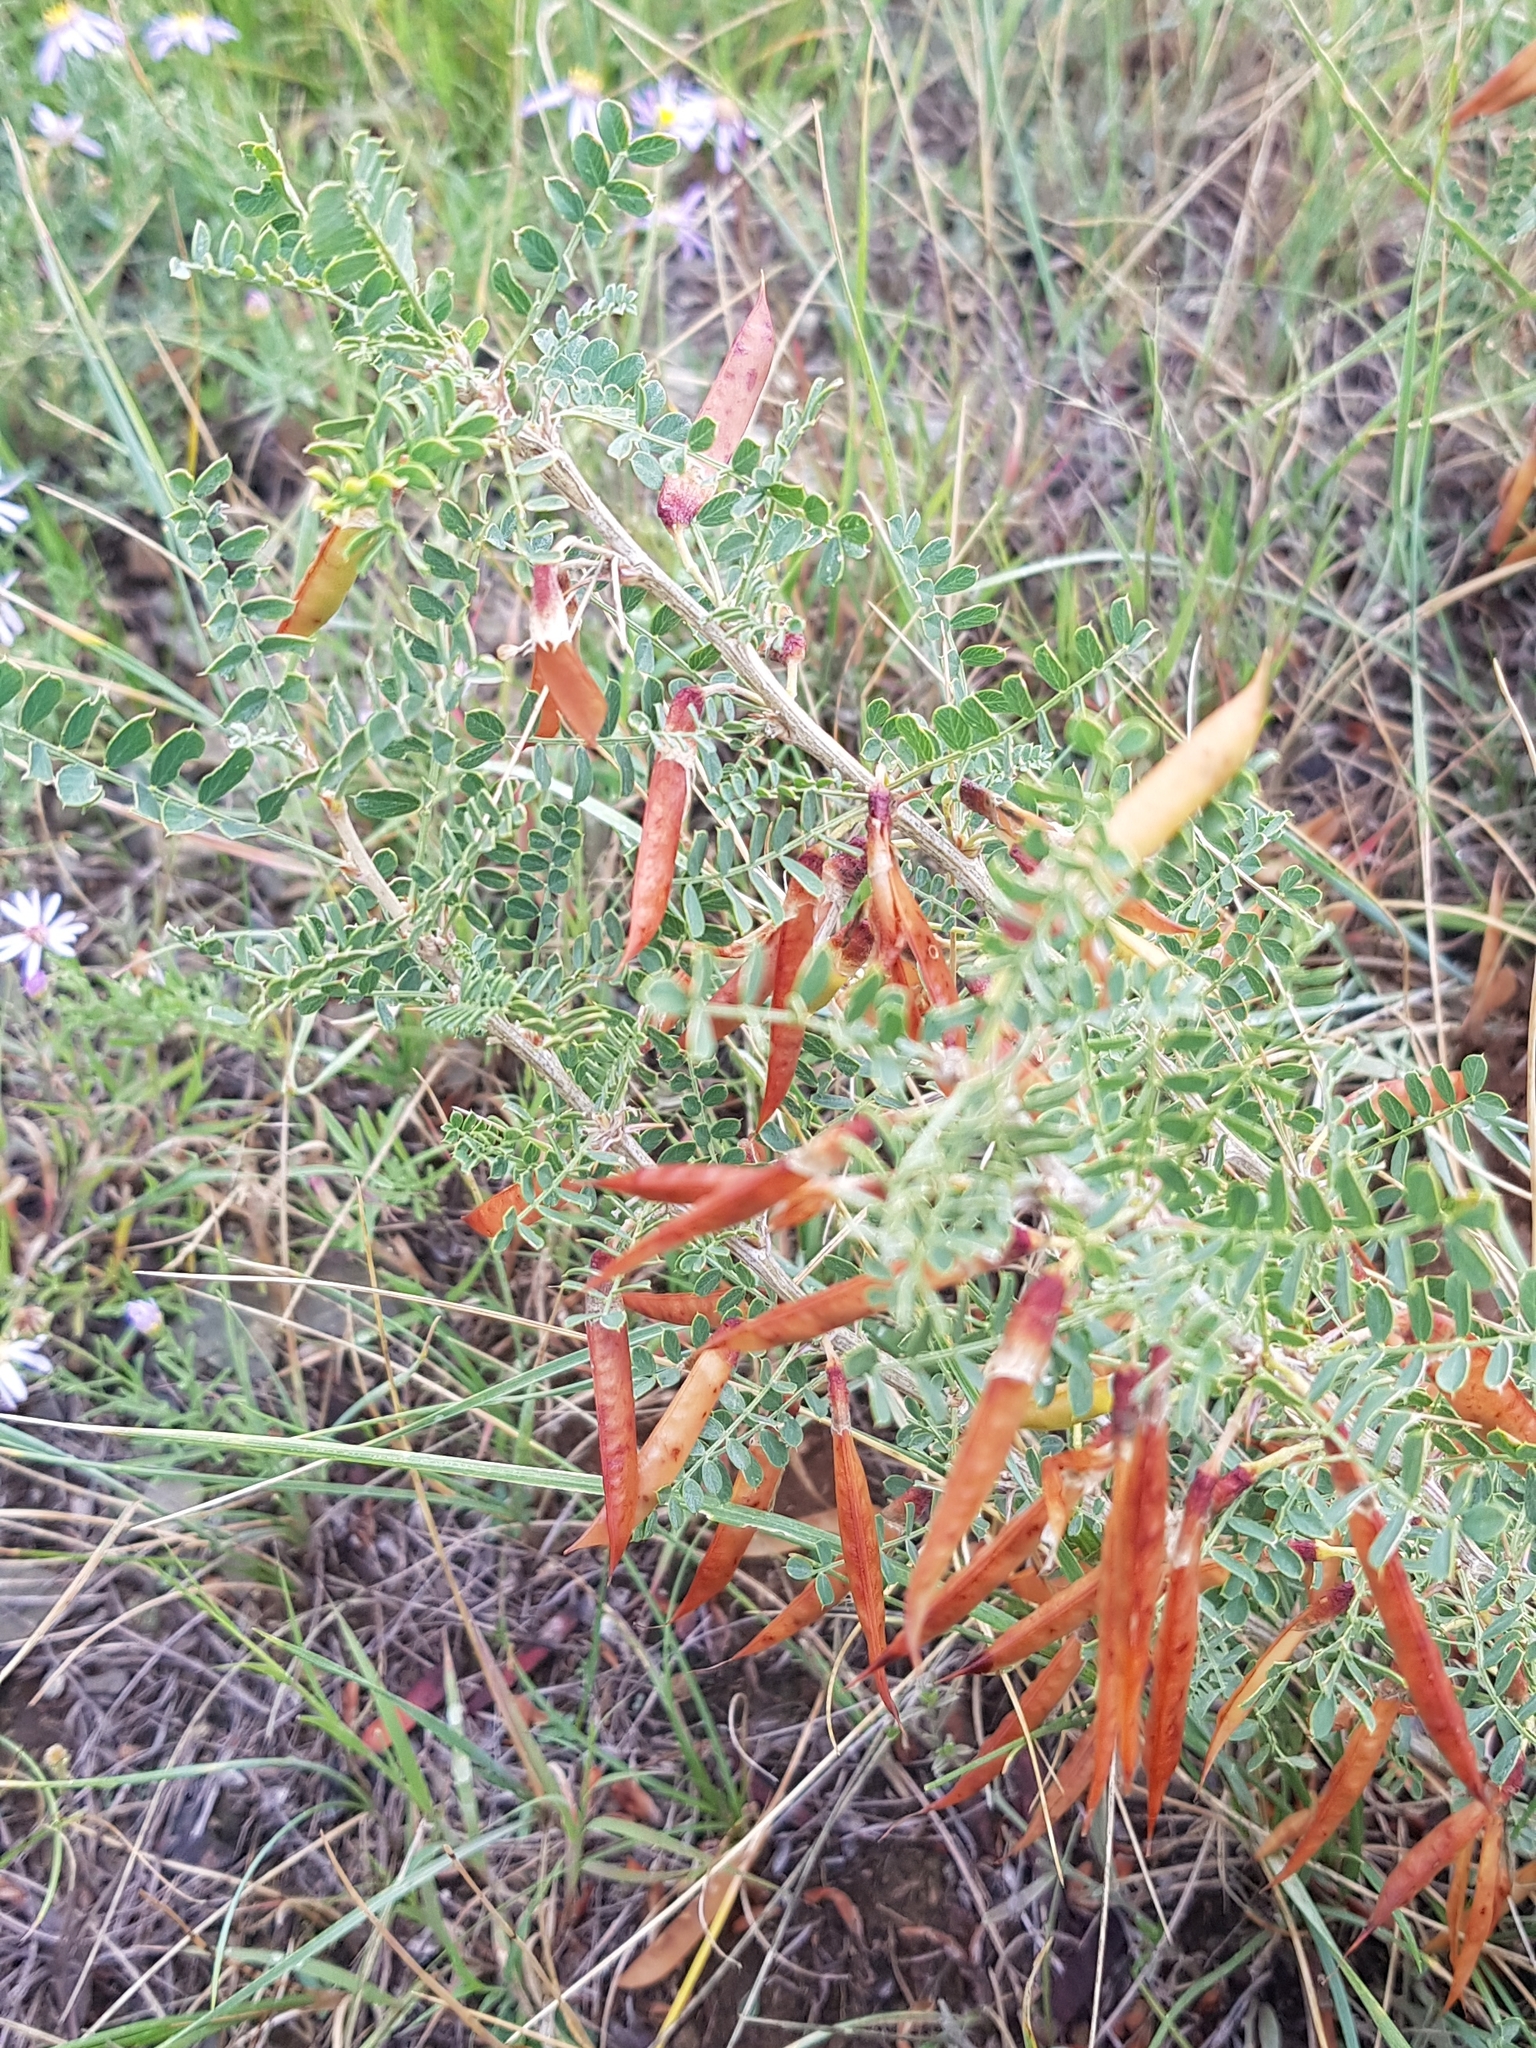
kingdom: Plantae
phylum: Tracheophyta
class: Magnoliopsida
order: Fabales
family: Fabaceae
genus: Caragana
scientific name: Caragana microphylla
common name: Littleleaf peashrub
